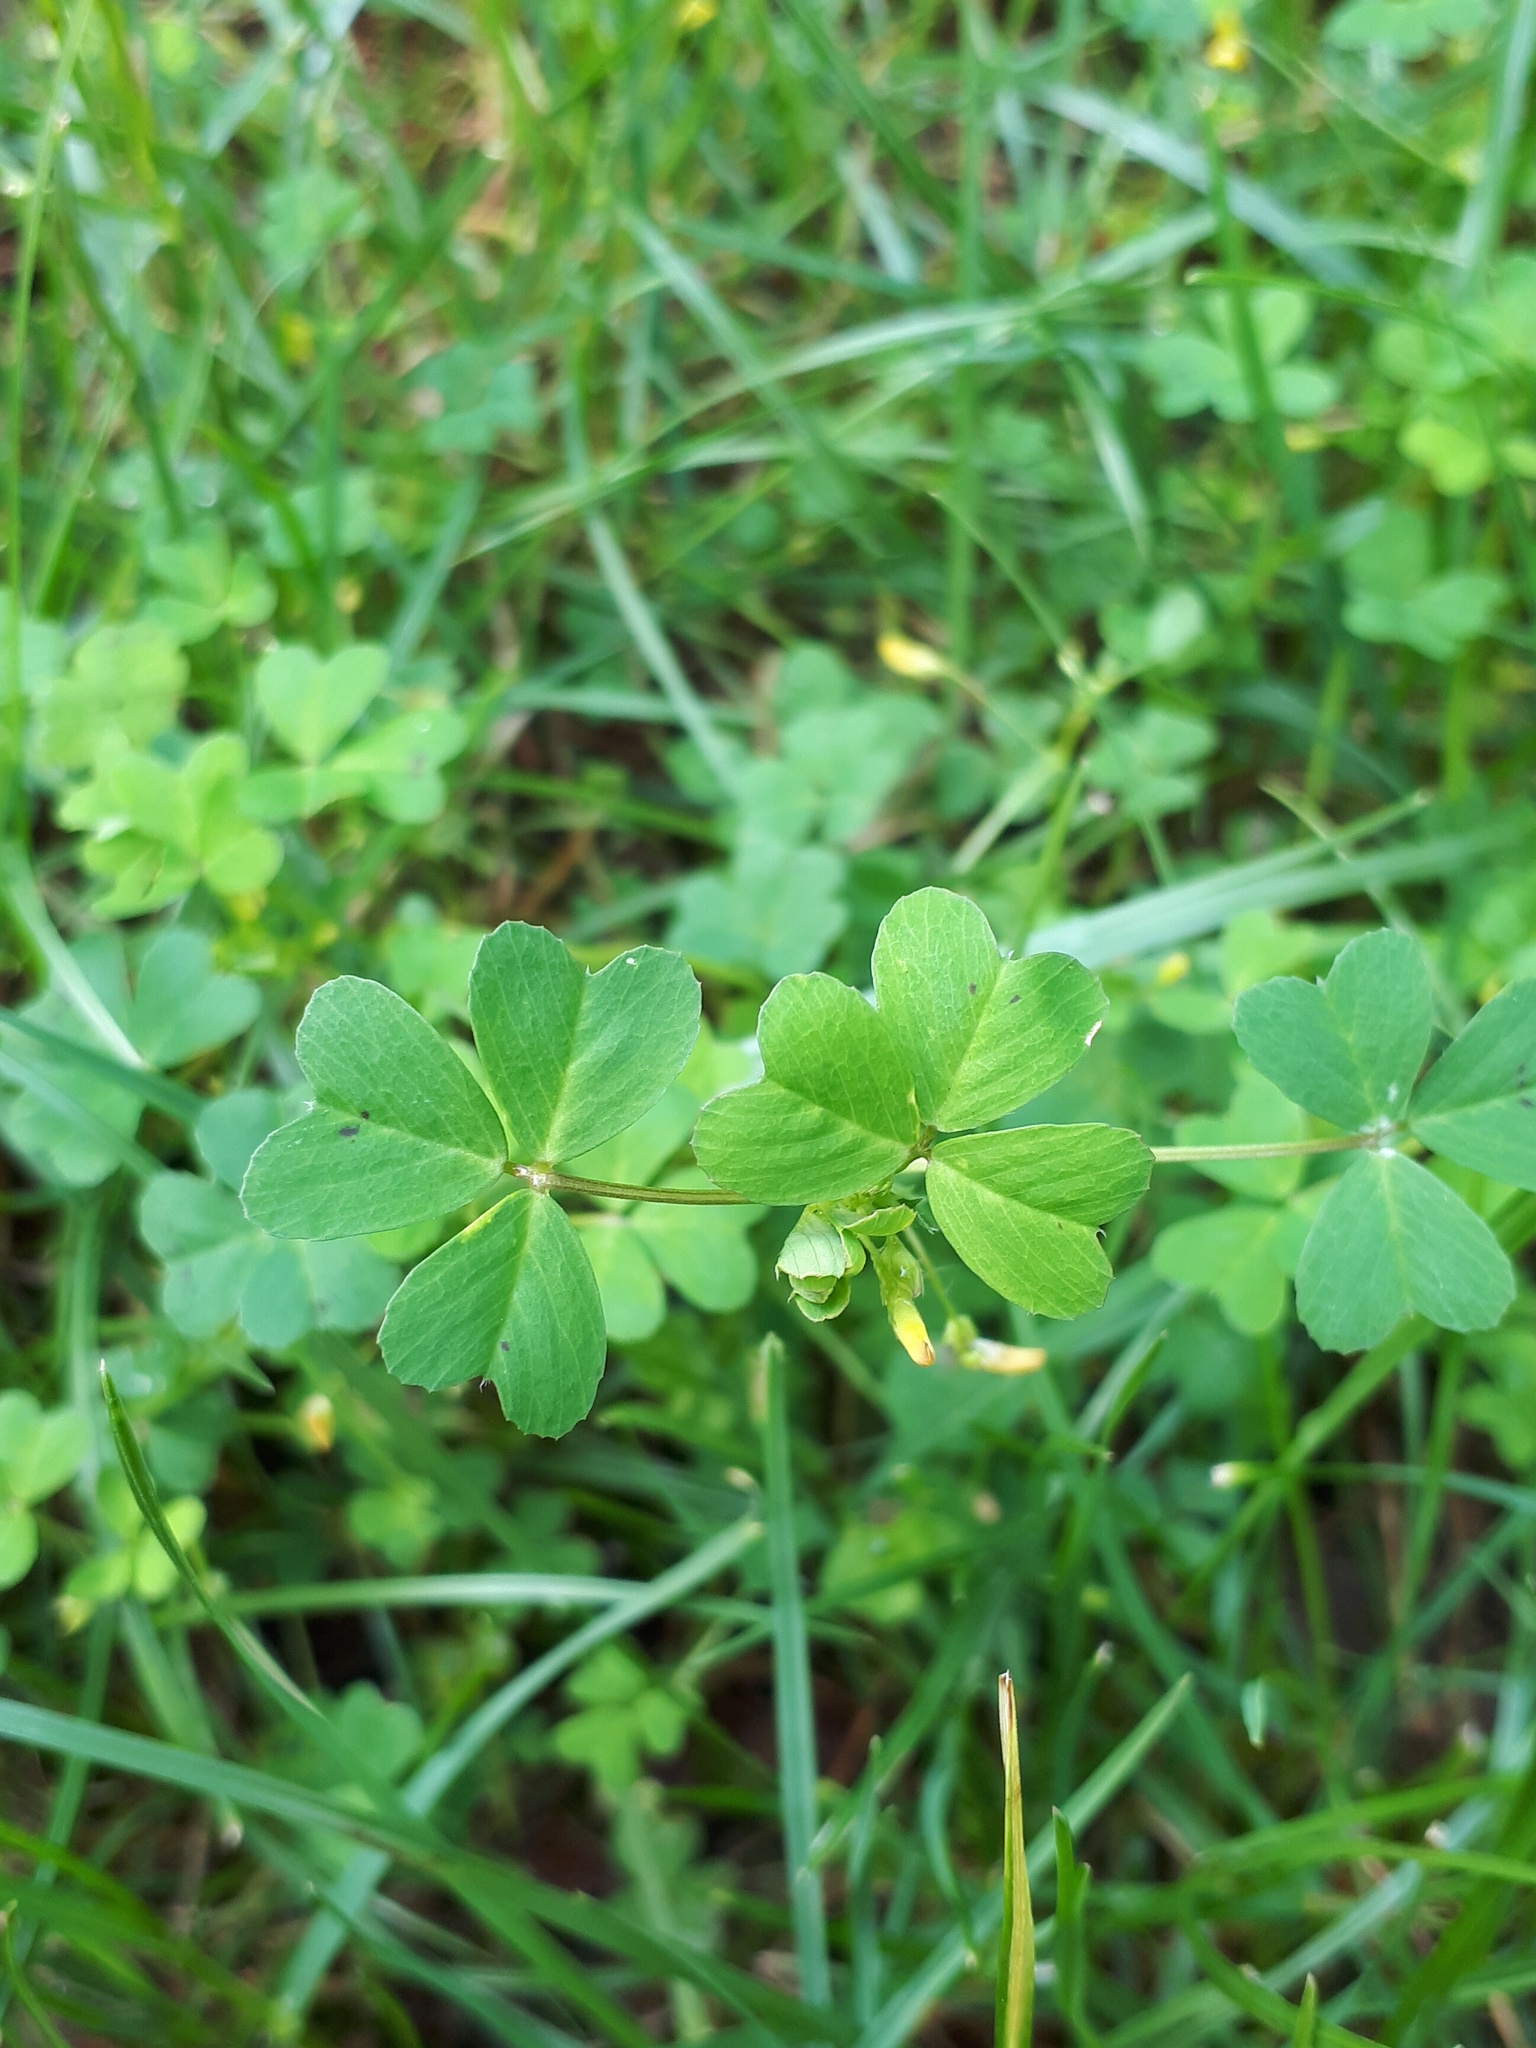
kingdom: Plantae
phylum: Tracheophyta
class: Magnoliopsida
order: Fabales
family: Fabaceae
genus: Medicago
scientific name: Medicago arabica
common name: Spotted medick
